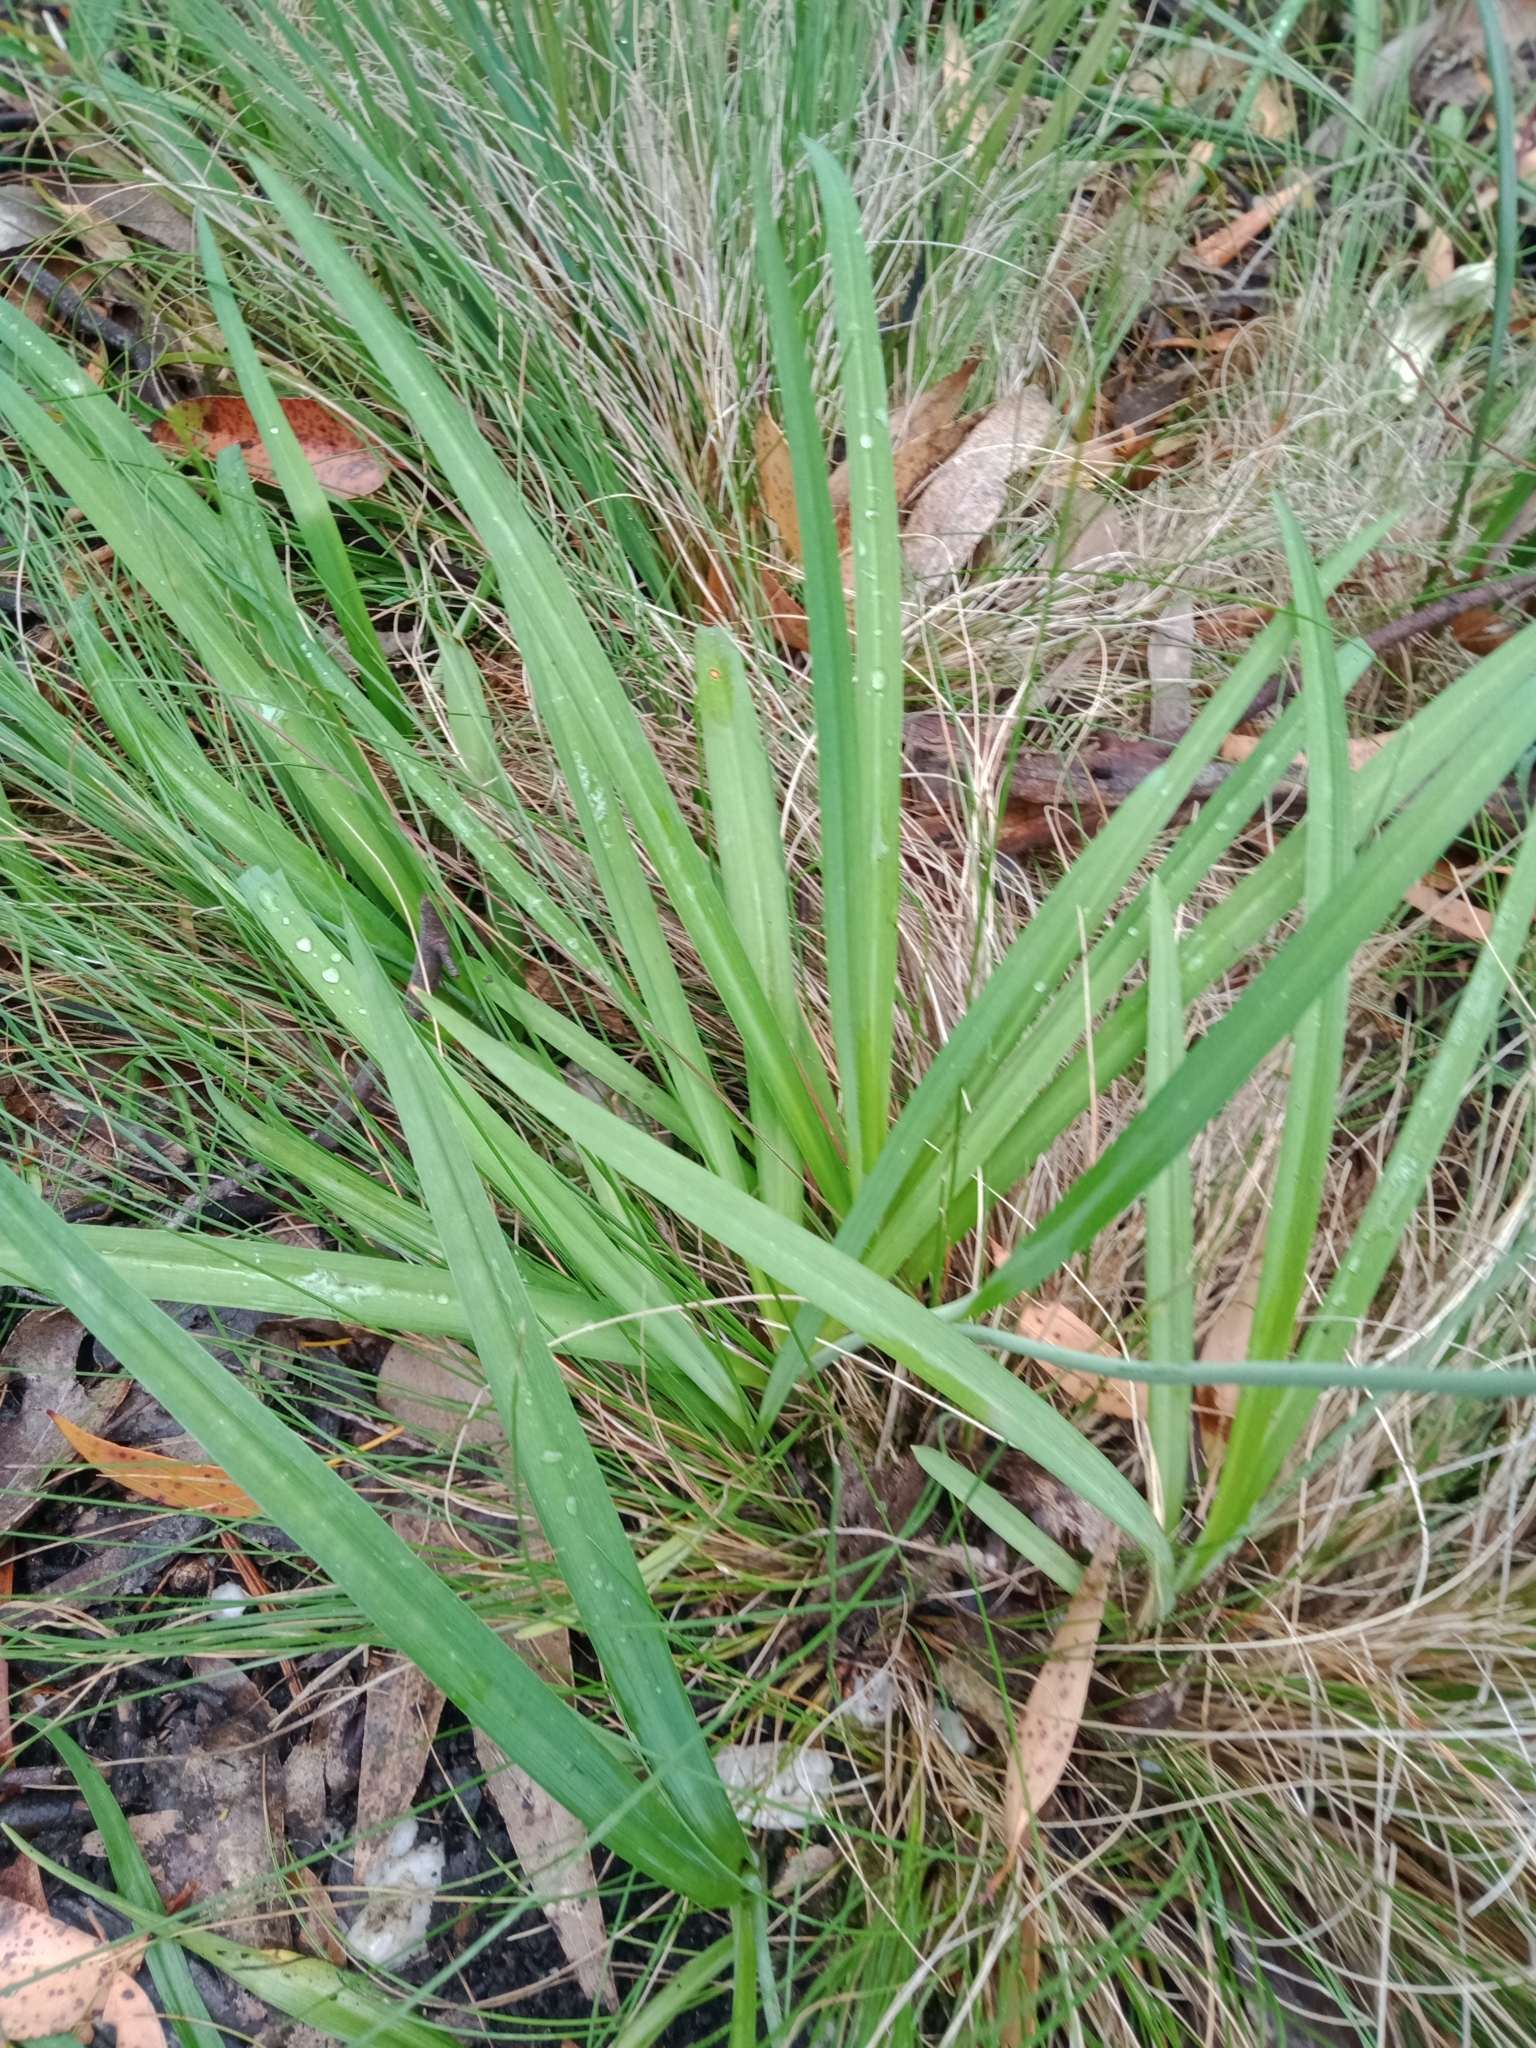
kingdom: Plantae
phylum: Tracheophyta
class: Liliopsida
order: Asparagales
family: Asparagaceae
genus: Arthropodium
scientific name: Arthropodium milleflorum
